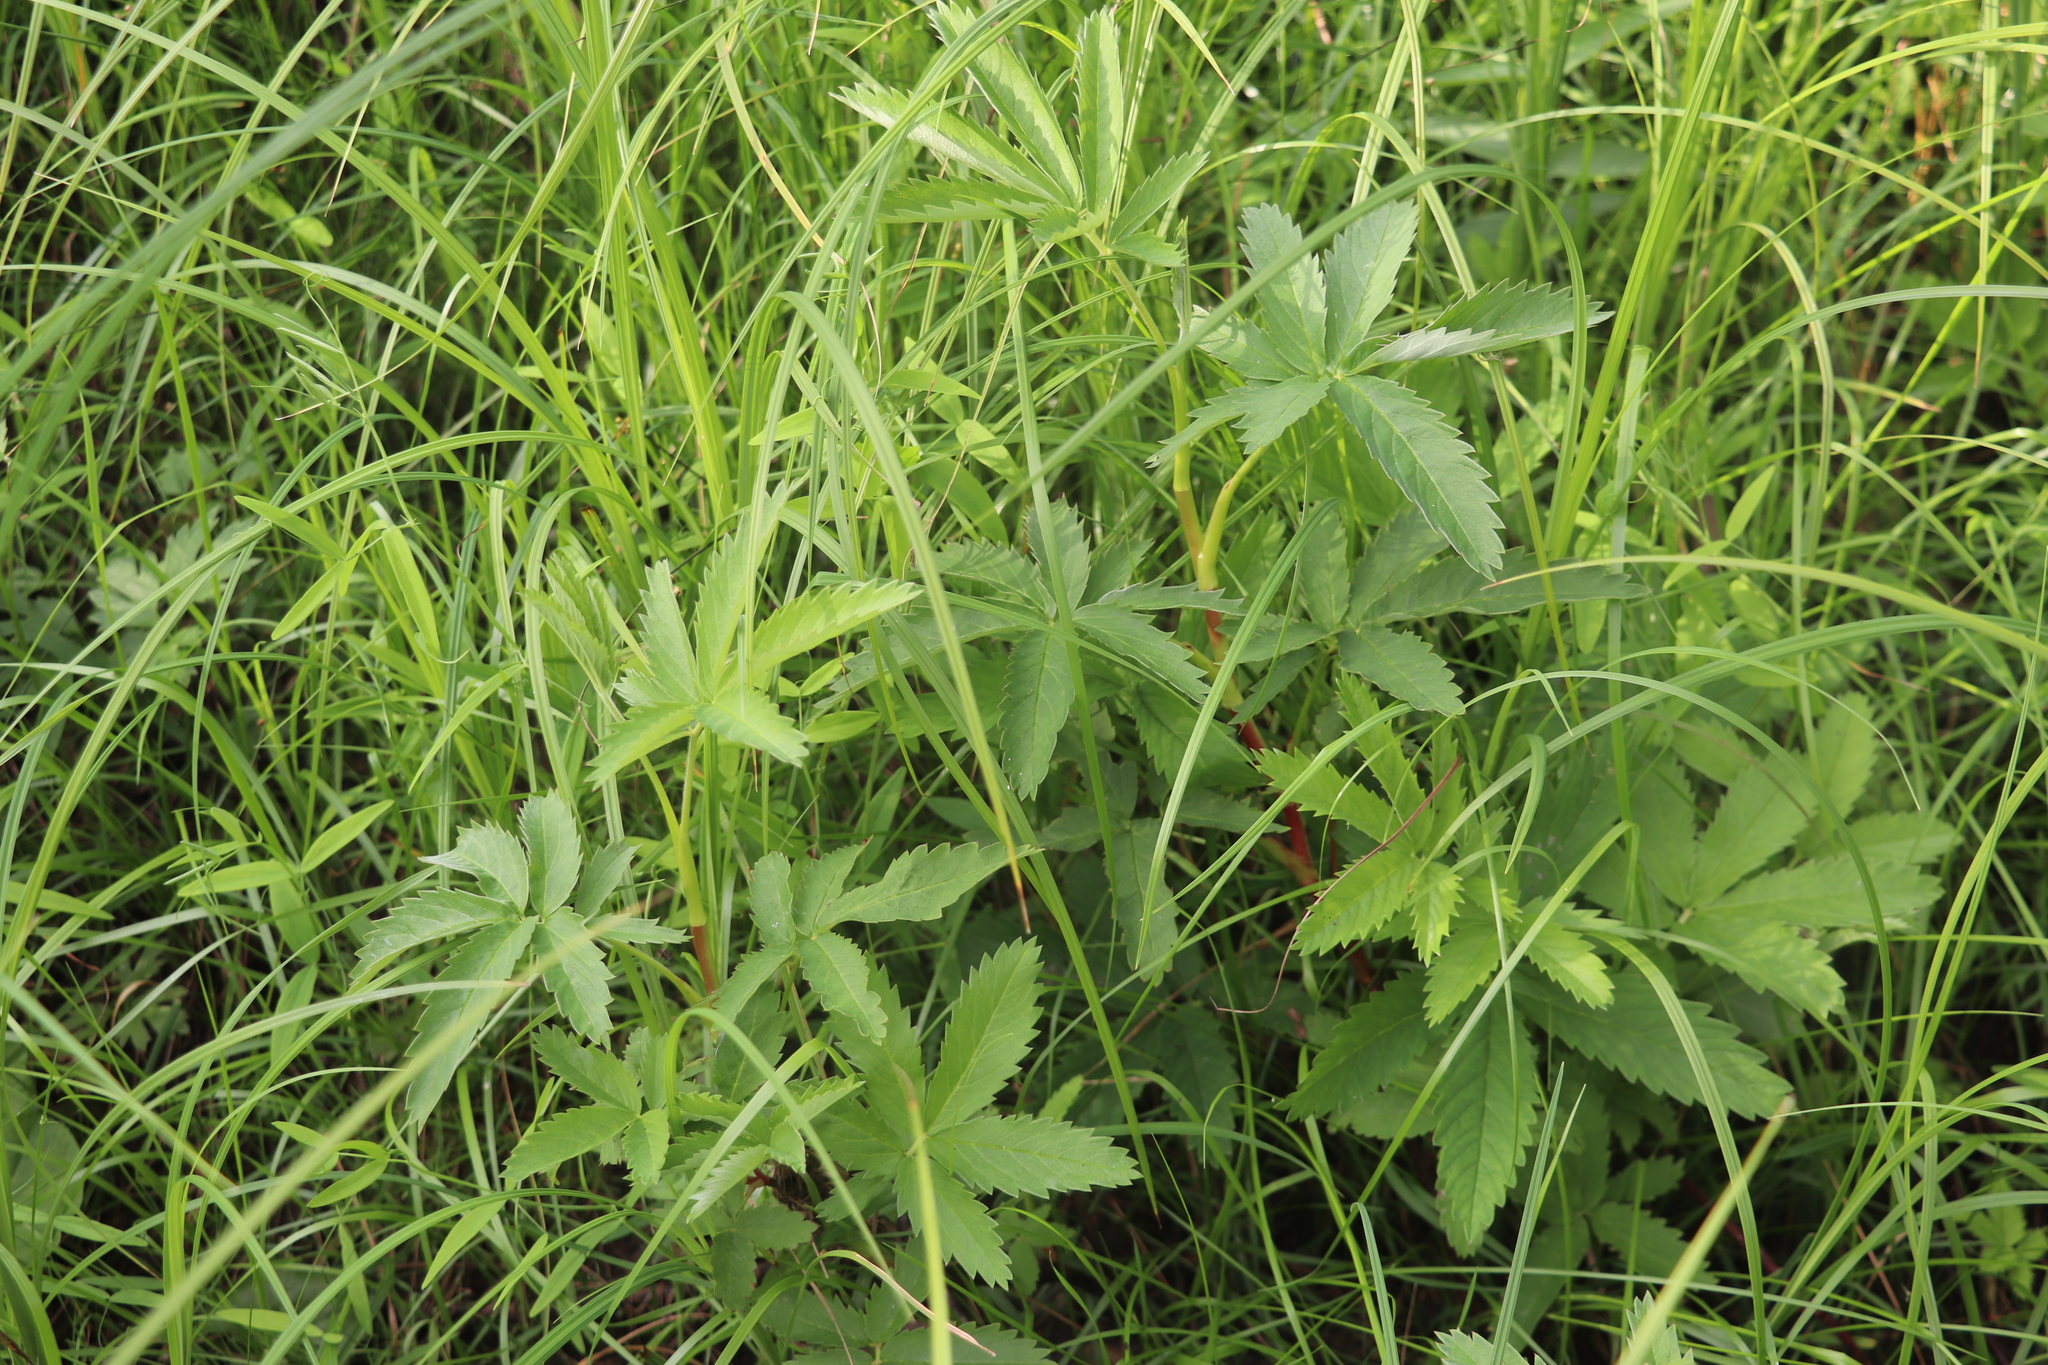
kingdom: Plantae
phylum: Tracheophyta
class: Magnoliopsida
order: Rosales
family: Rosaceae
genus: Comarum
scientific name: Comarum palustre
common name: Marsh cinquefoil
